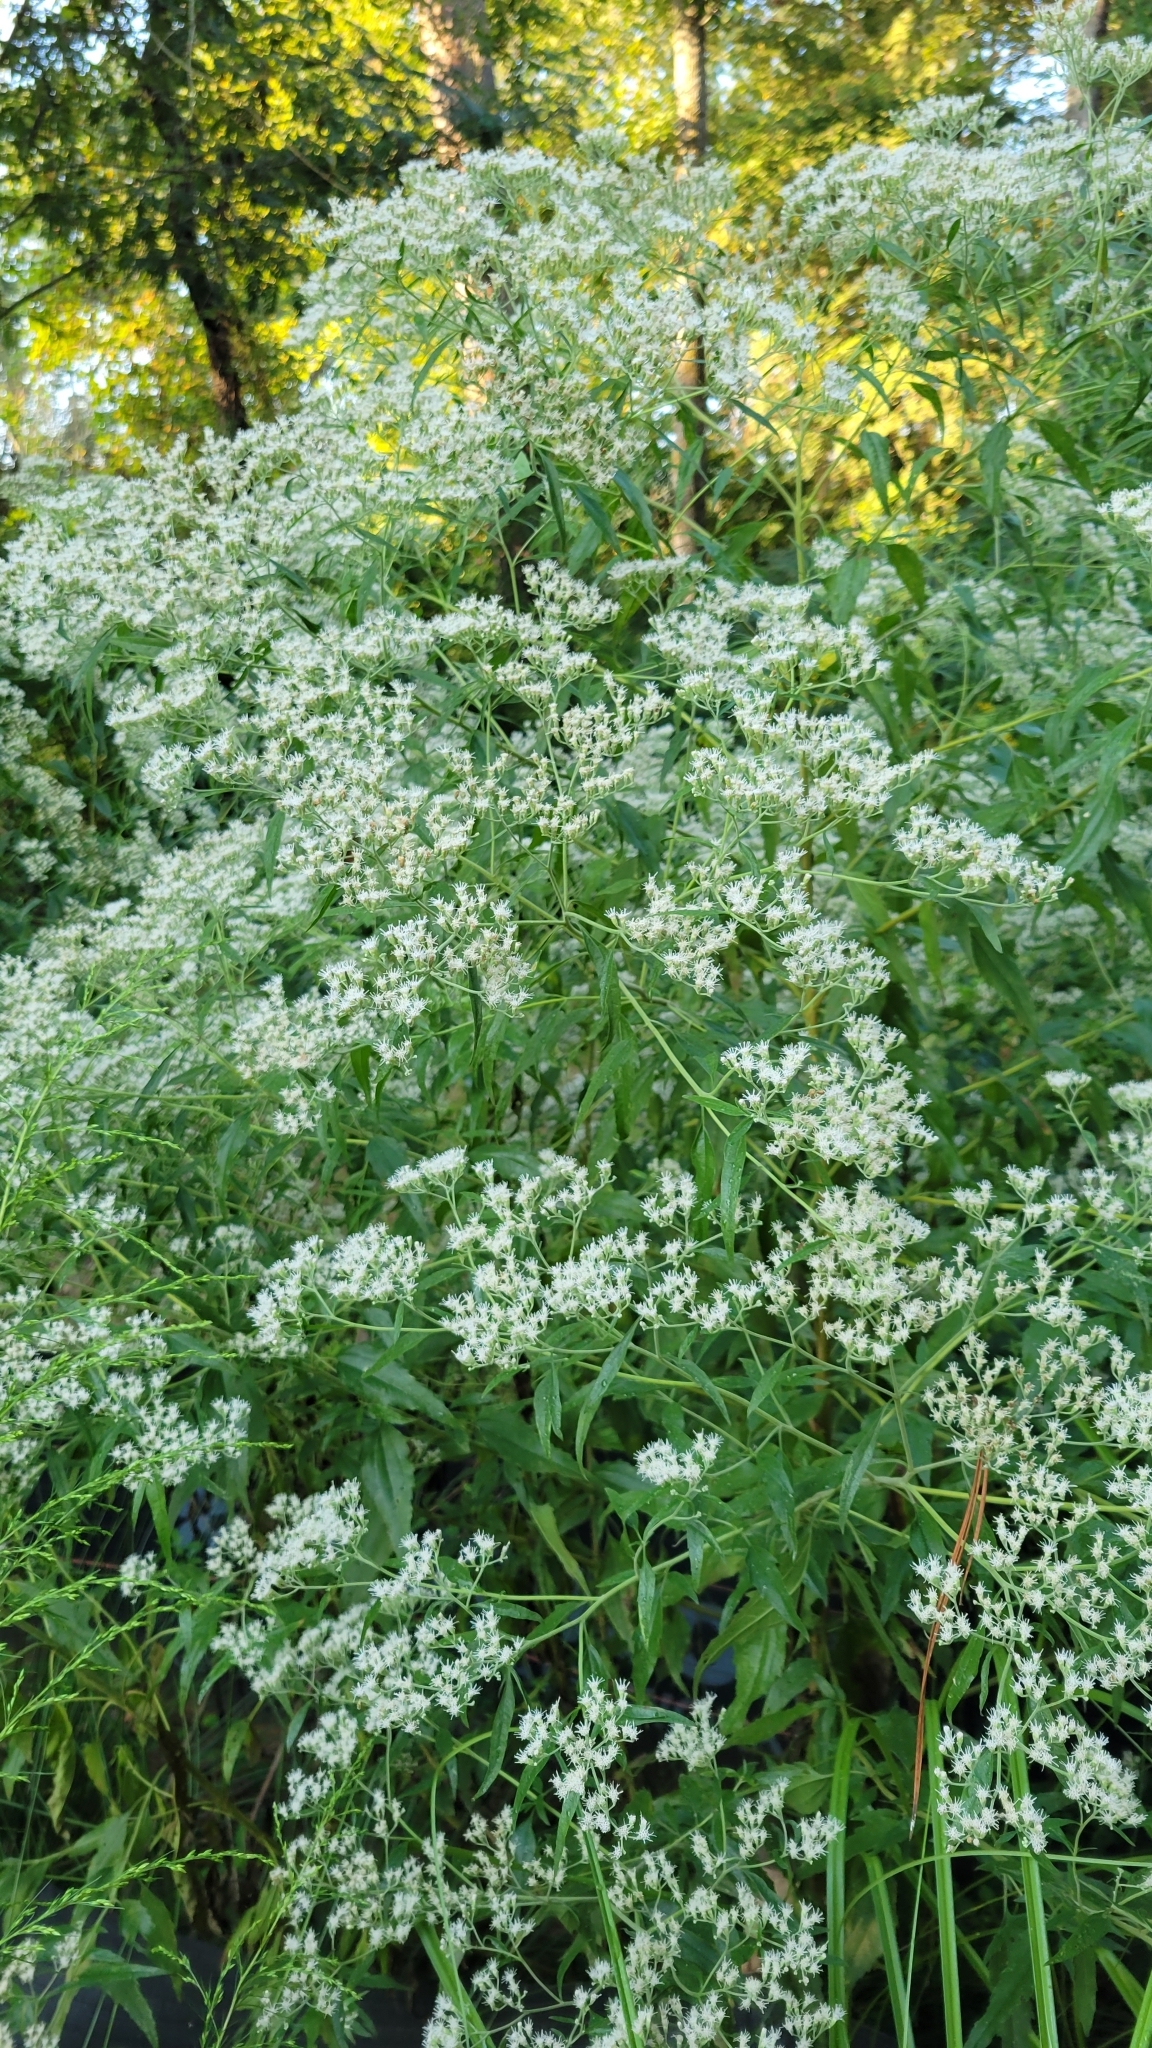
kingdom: Plantae
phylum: Tracheophyta
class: Magnoliopsida
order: Asterales
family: Asteraceae
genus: Eupatorium
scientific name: Eupatorium serotinum
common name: Late boneset
